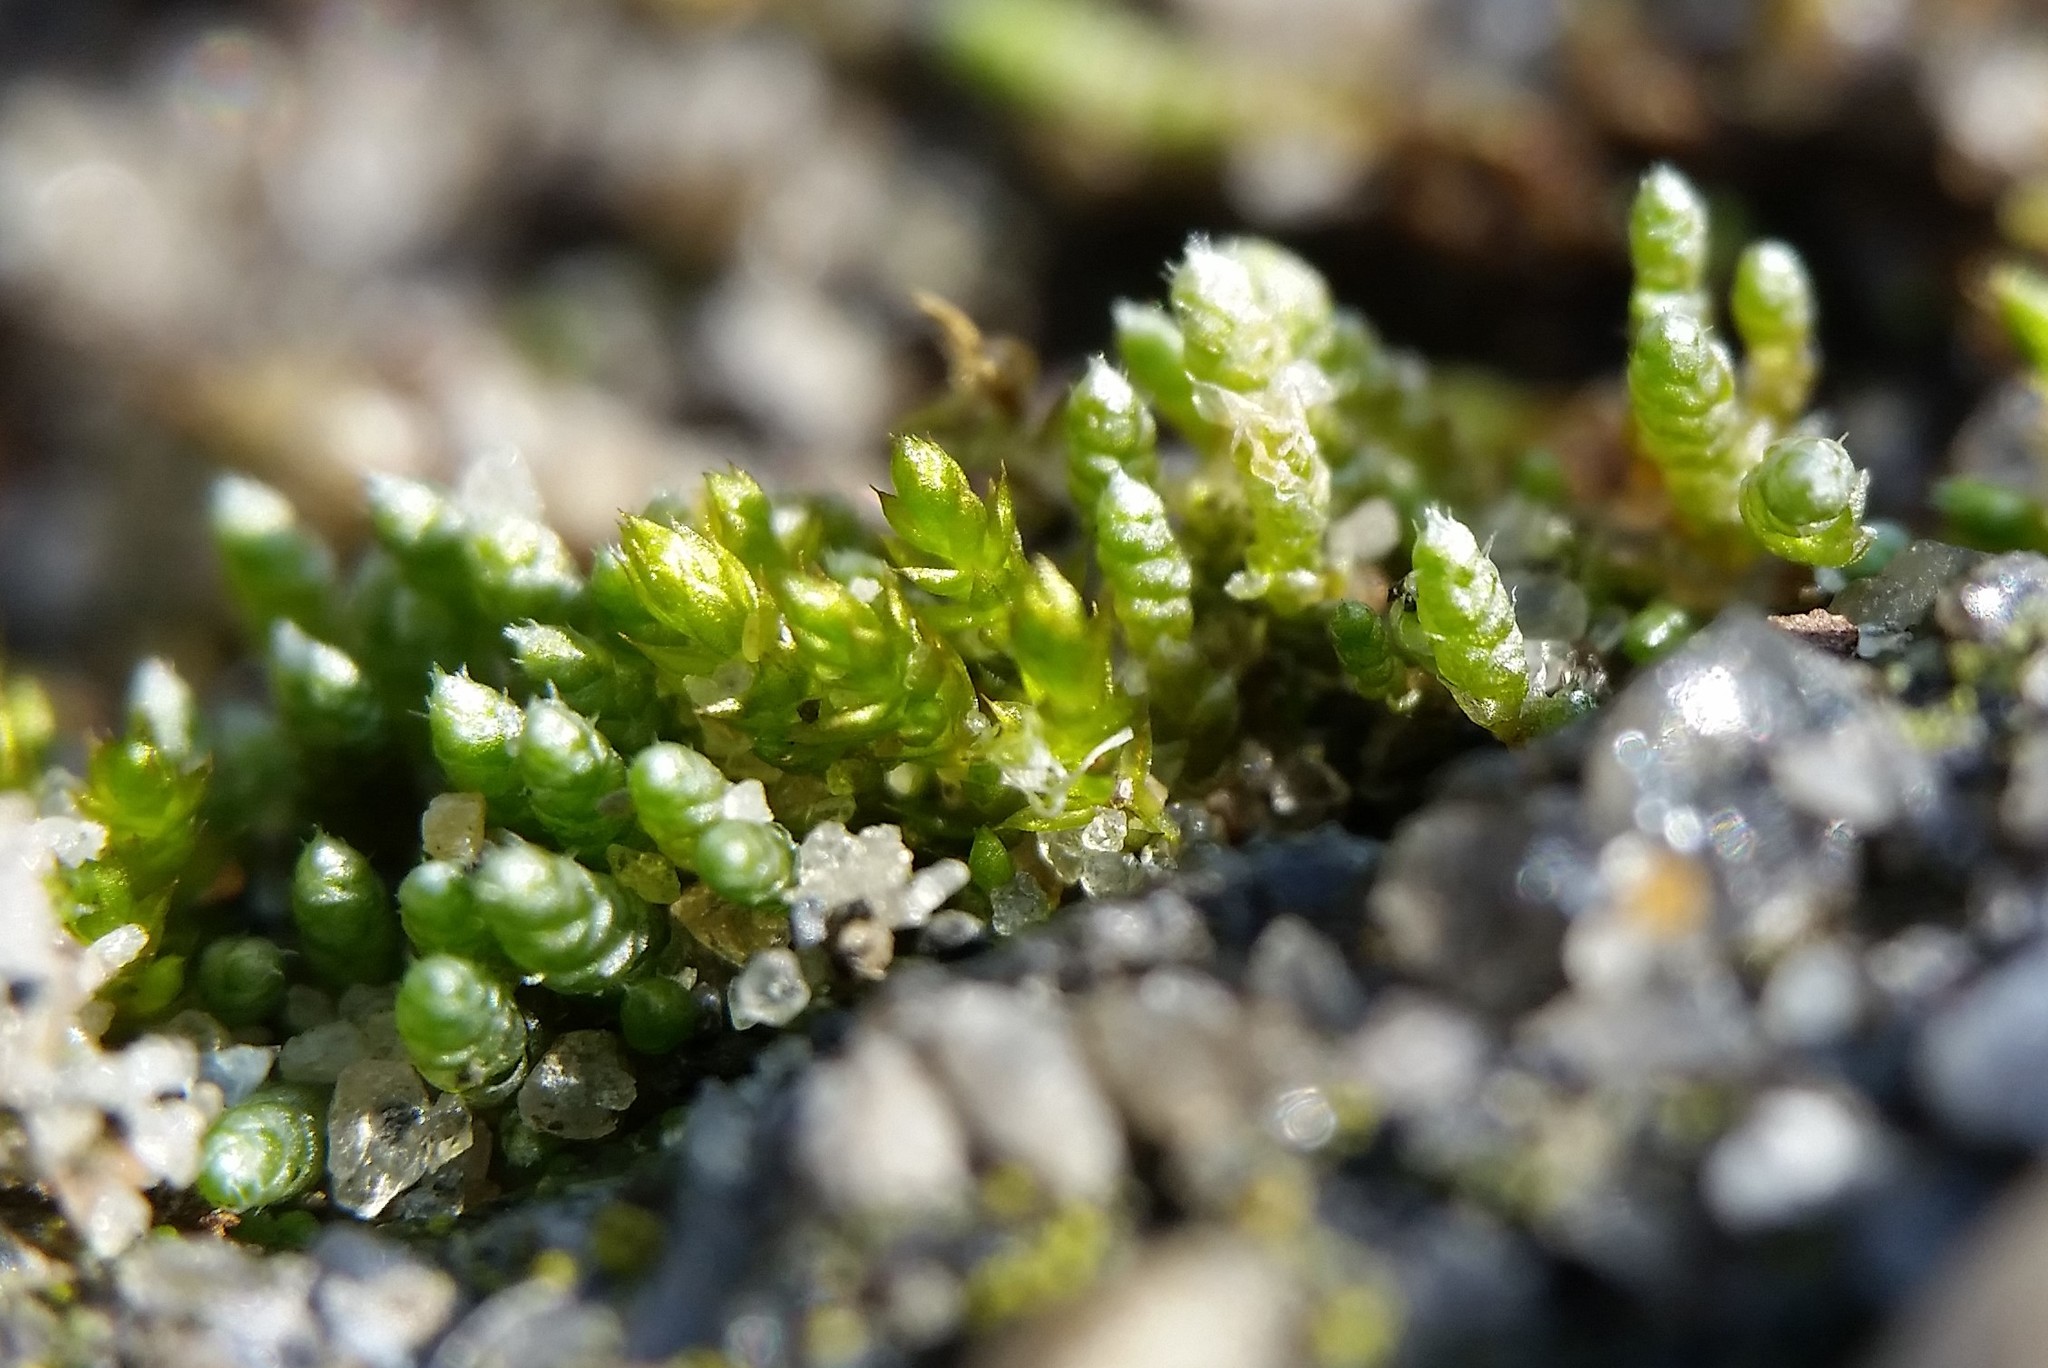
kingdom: Plantae
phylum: Bryophyta
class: Bryopsida
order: Bryales
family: Bryaceae
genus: Bryum
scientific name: Bryum argenteum
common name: Silver-moss
